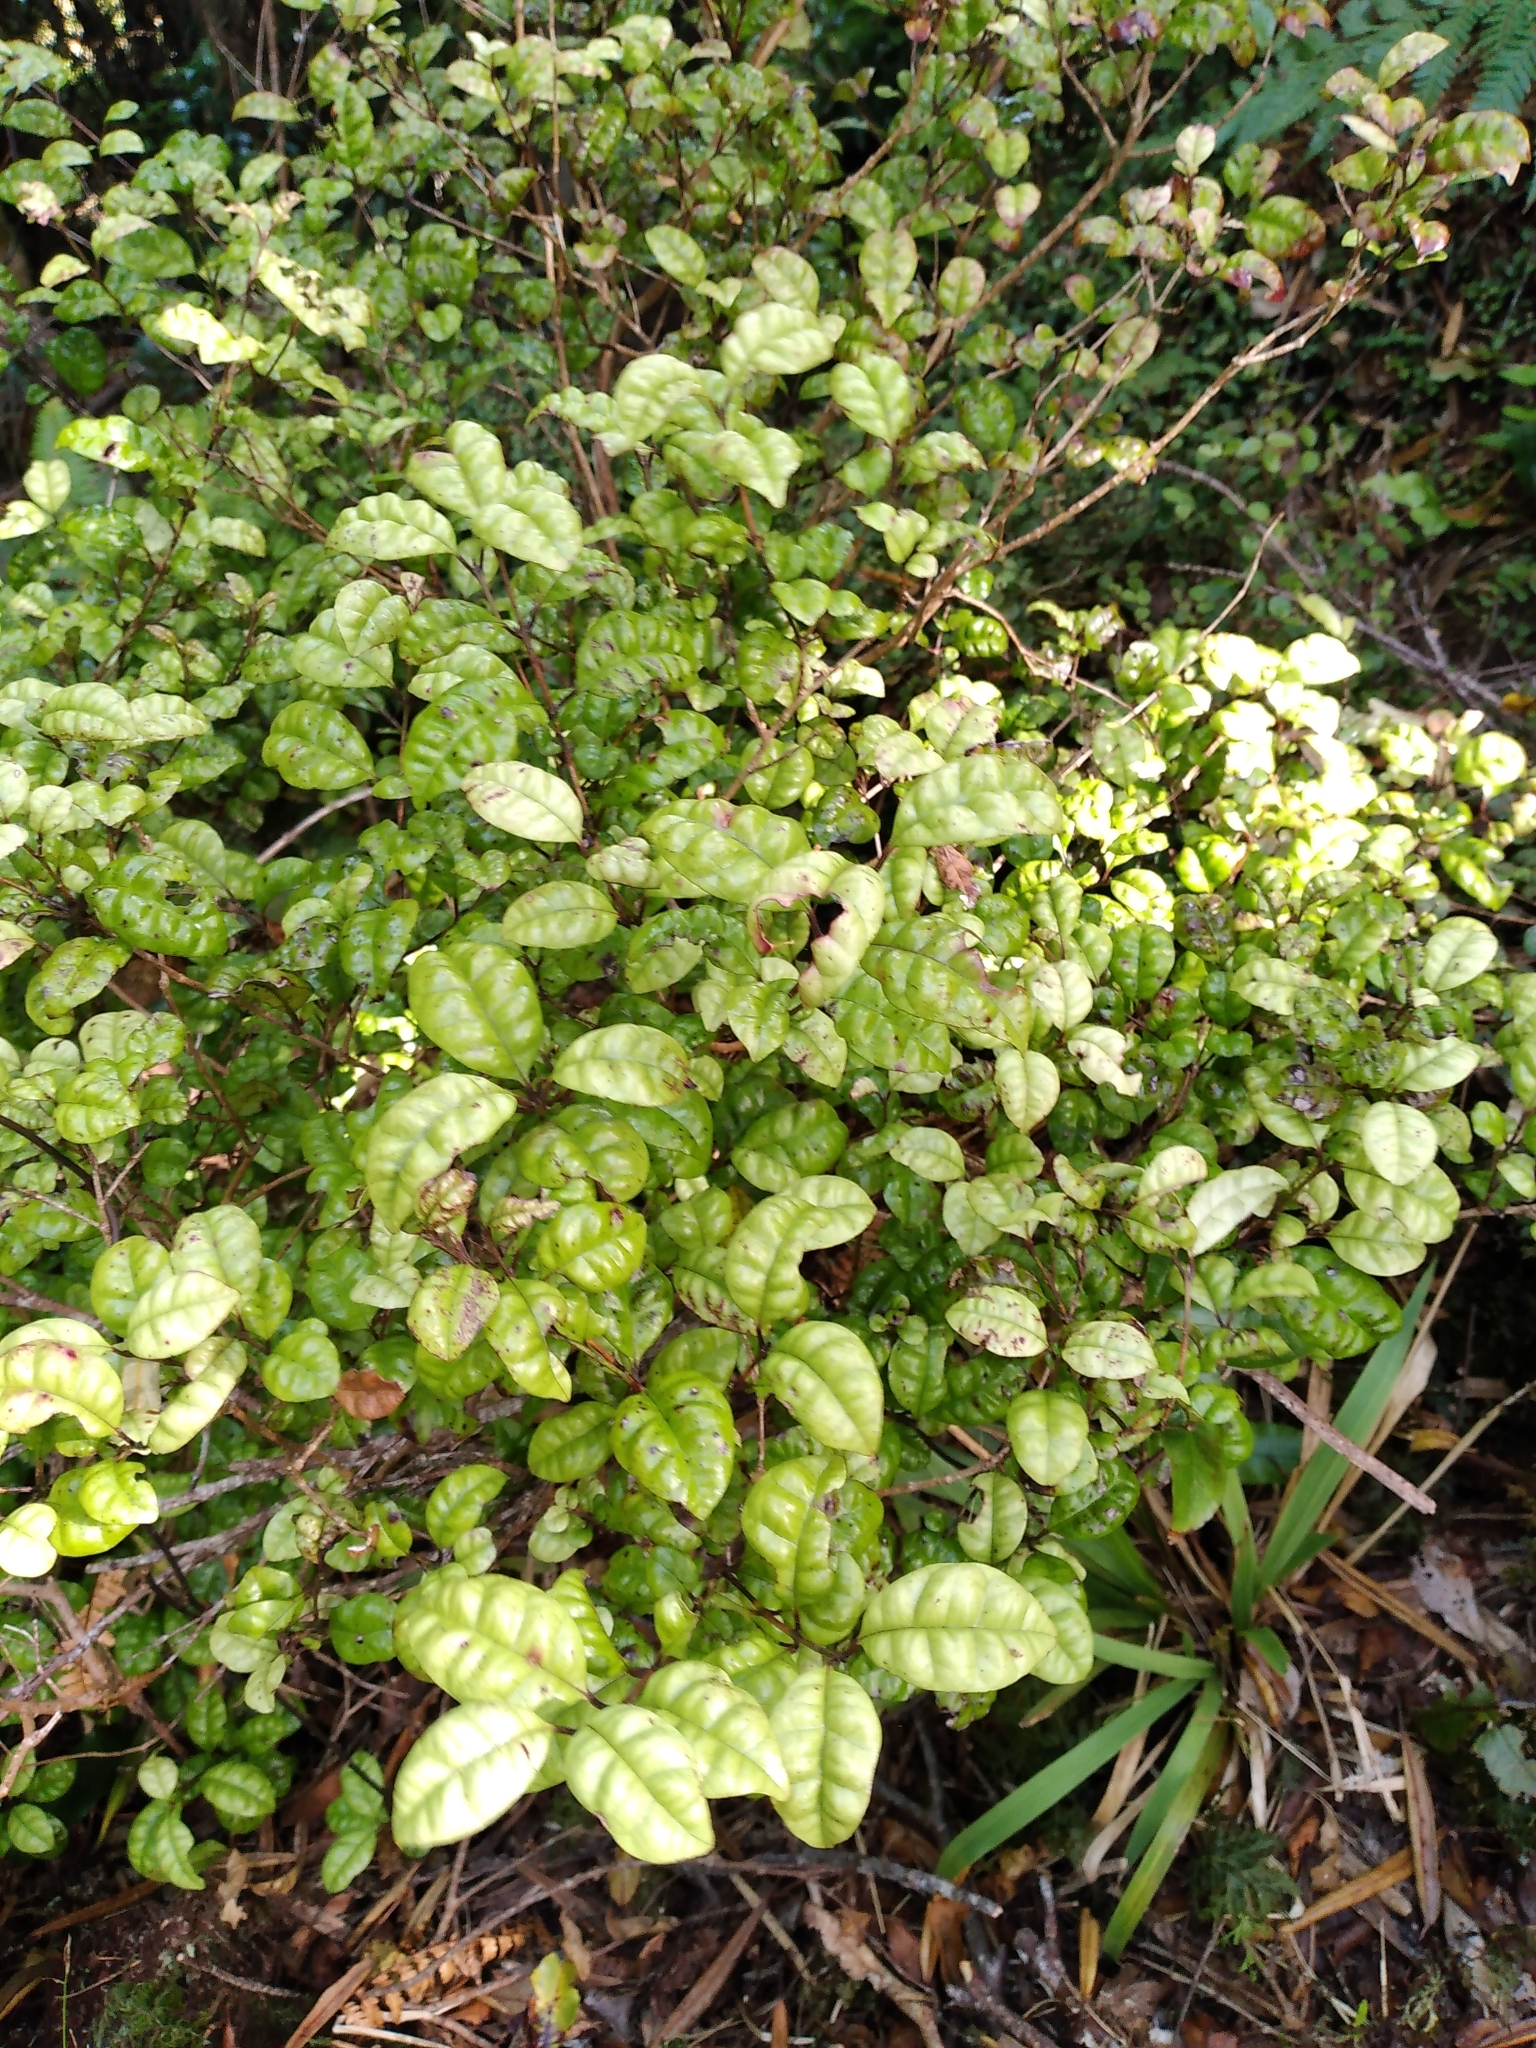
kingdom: Plantae
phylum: Tracheophyta
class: Magnoliopsida
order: Myrtales
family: Myrtaceae
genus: Lophomyrtus
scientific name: Lophomyrtus bullata
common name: Rama rama
